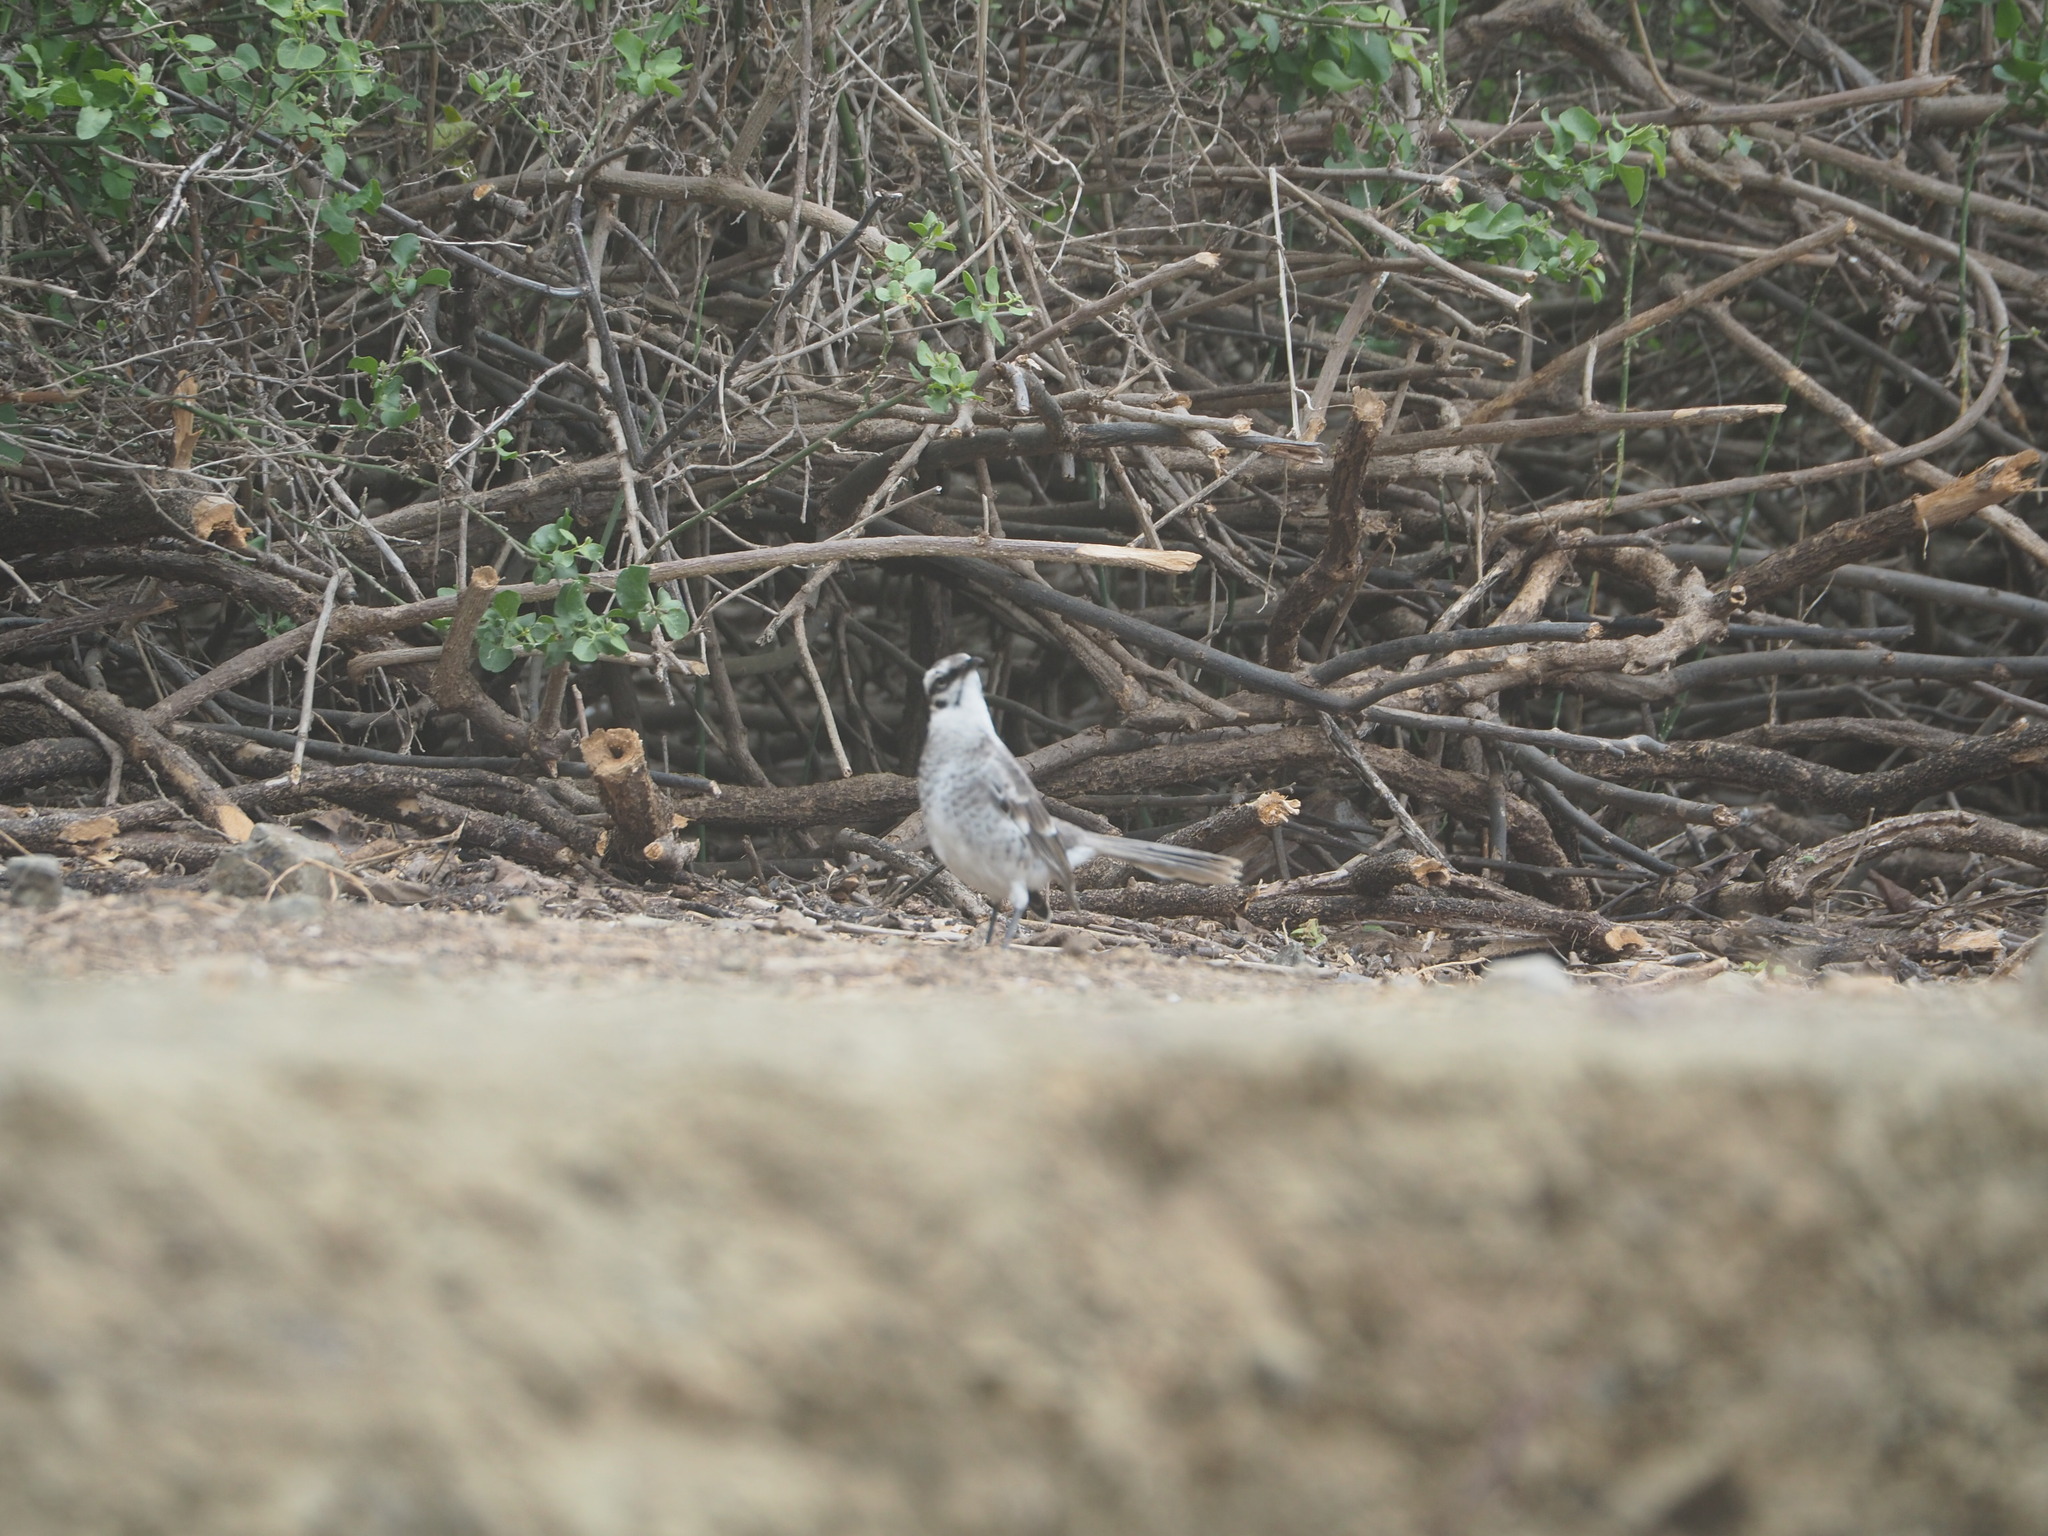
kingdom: Animalia
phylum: Chordata
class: Aves
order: Passeriformes
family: Mimidae
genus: Mimus
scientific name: Mimus longicaudatus
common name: Long-tailed mockingbird
